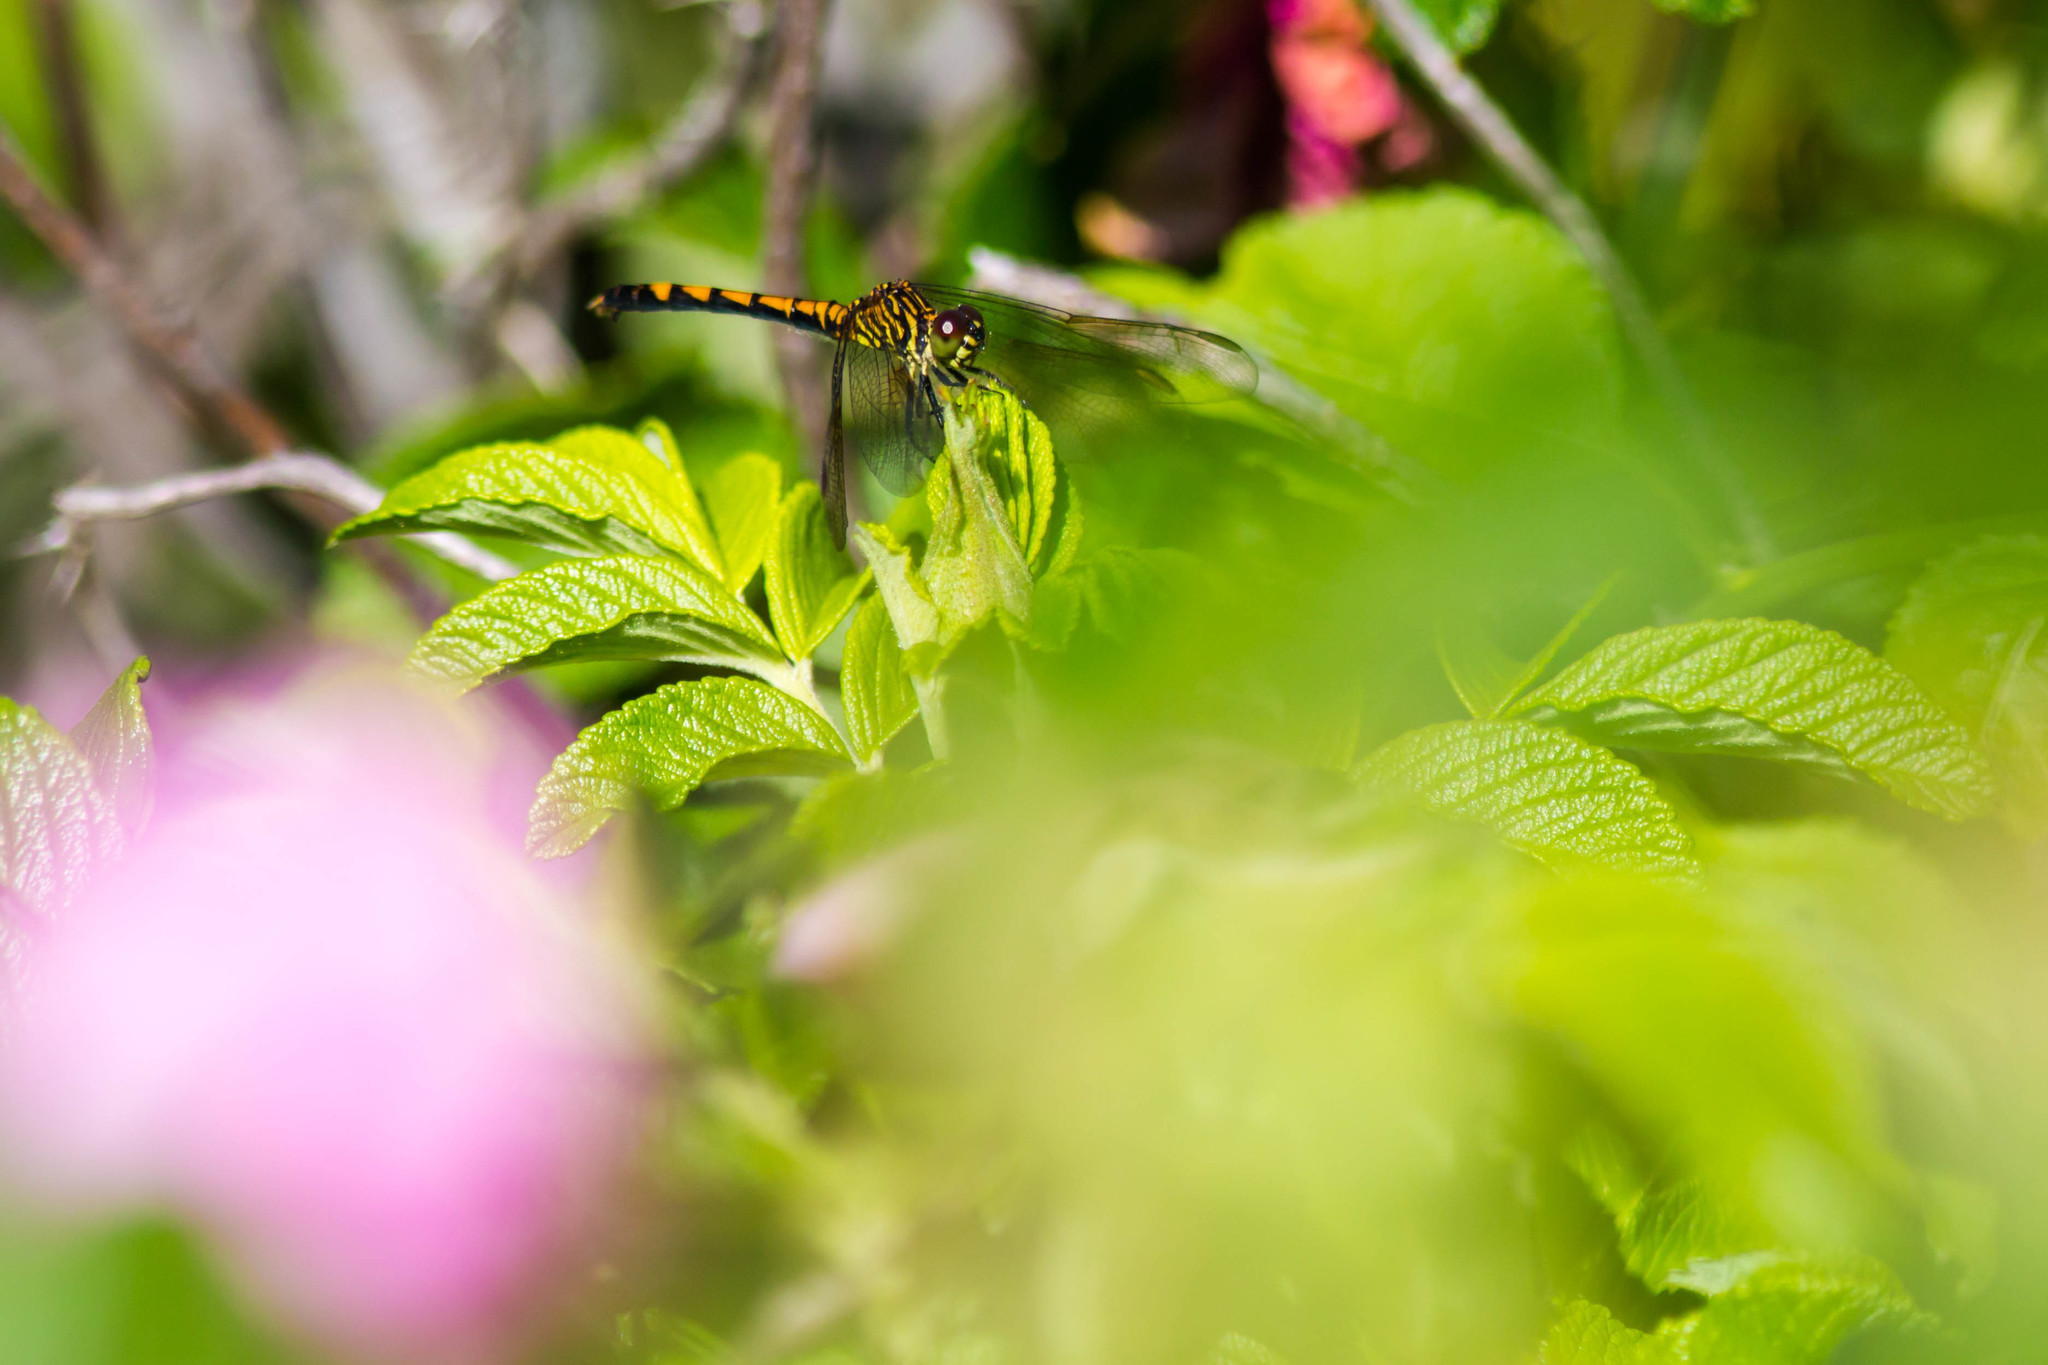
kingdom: Animalia
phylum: Arthropoda
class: Insecta
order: Odonata
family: Libellulidae
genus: Erythrodiplax
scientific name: Erythrodiplax berenice
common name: Seaside dragonlet
